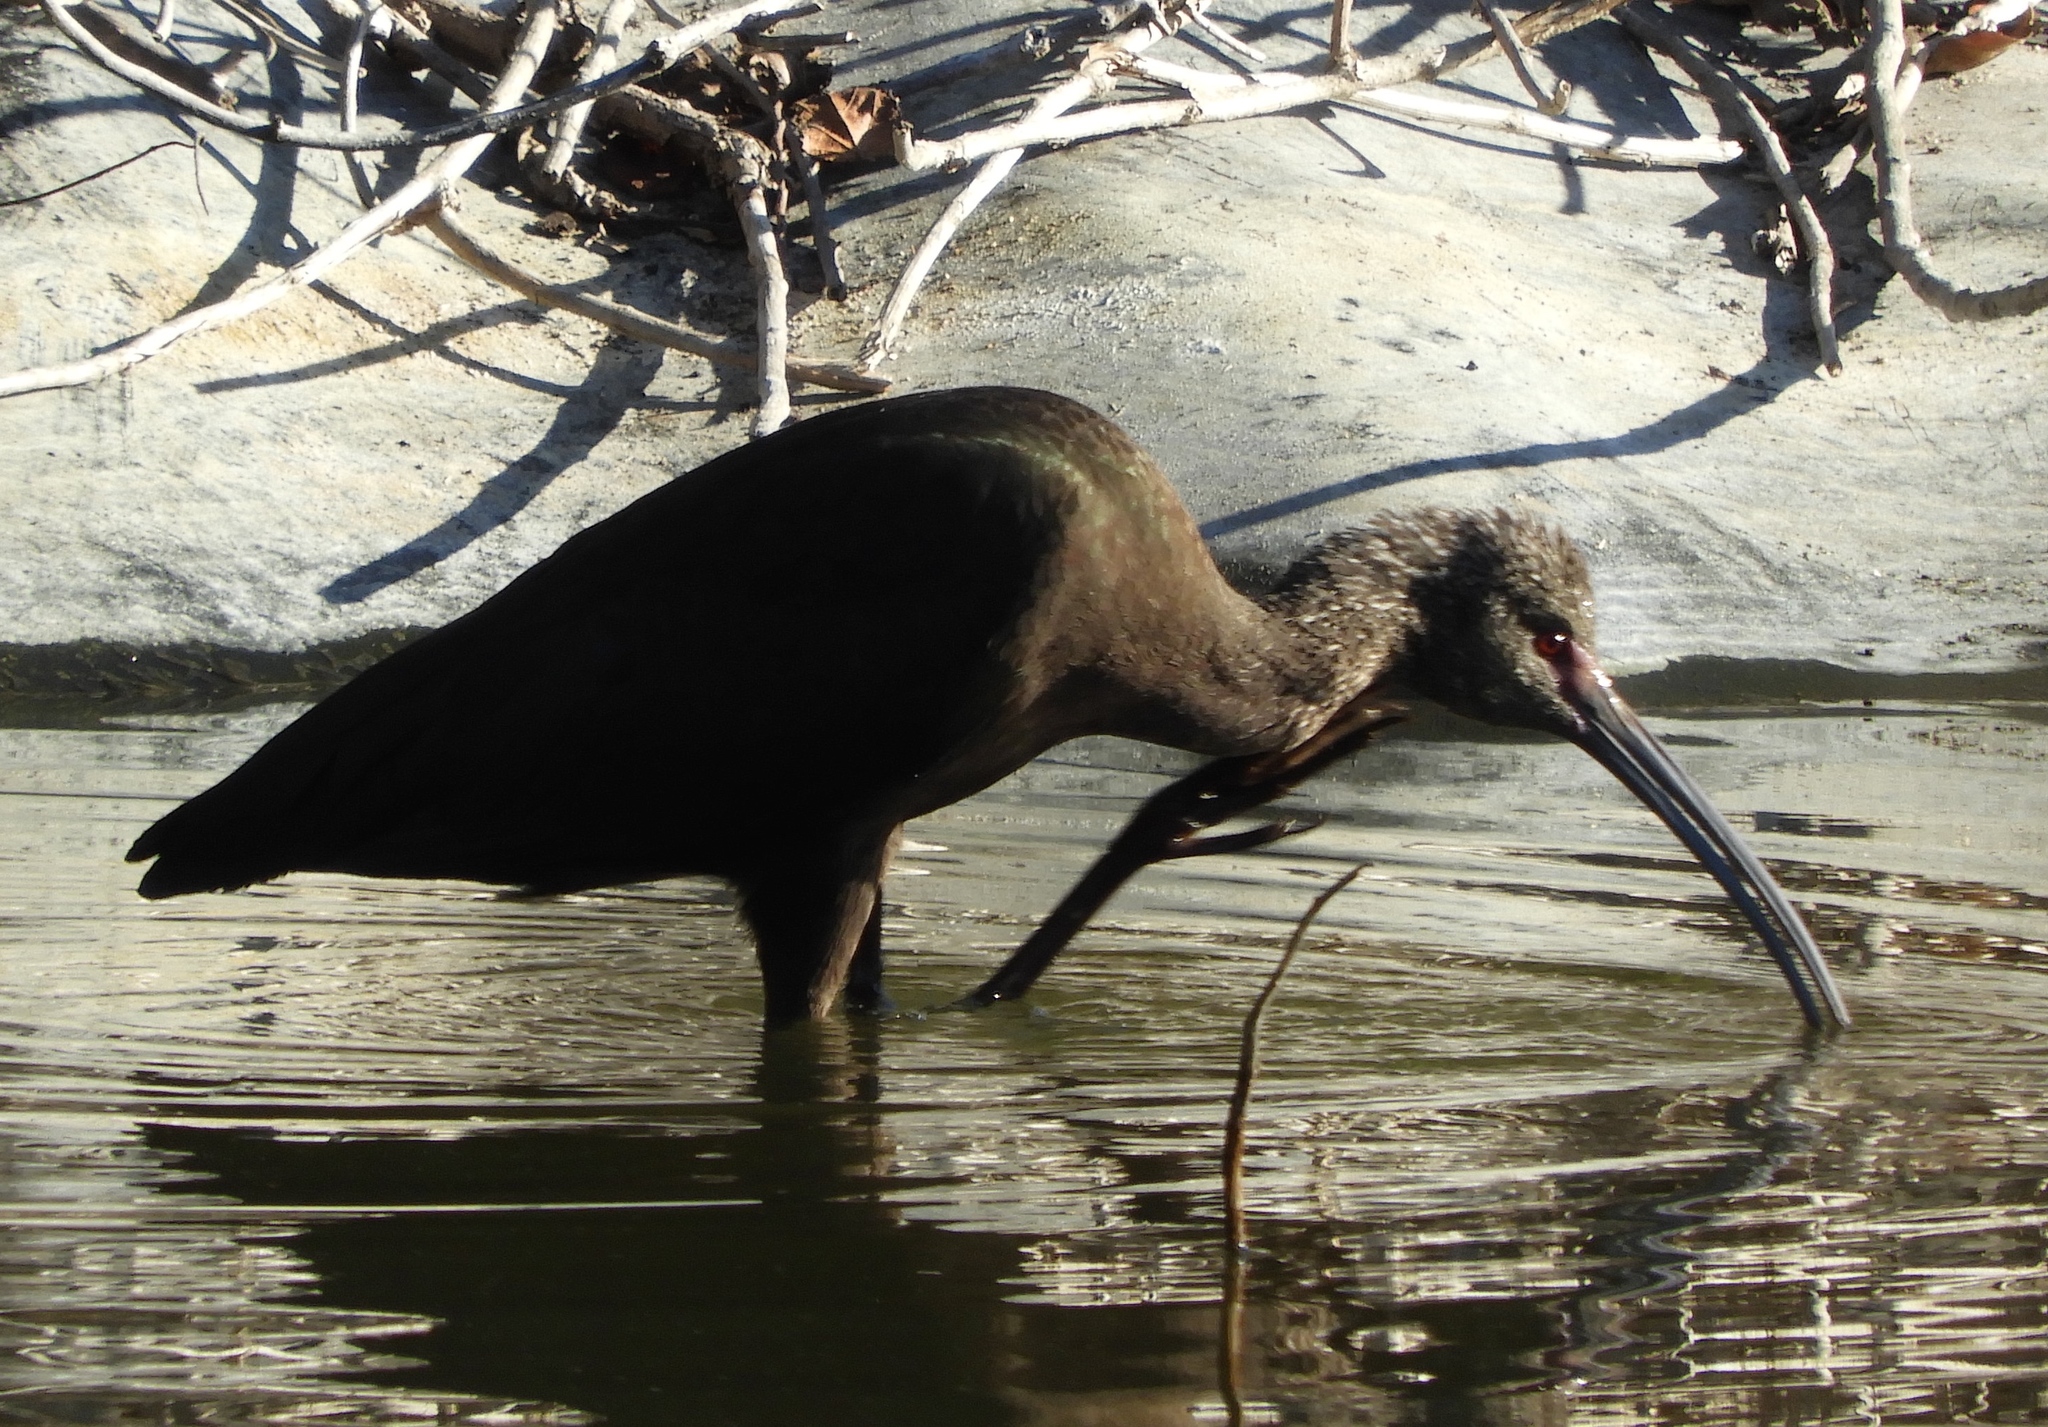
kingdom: Animalia
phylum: Chordata
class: Aves
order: Pelecaniformes
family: Threskiornithidae
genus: Plegadis
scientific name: Plegadis chihi
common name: White-faced ibis
